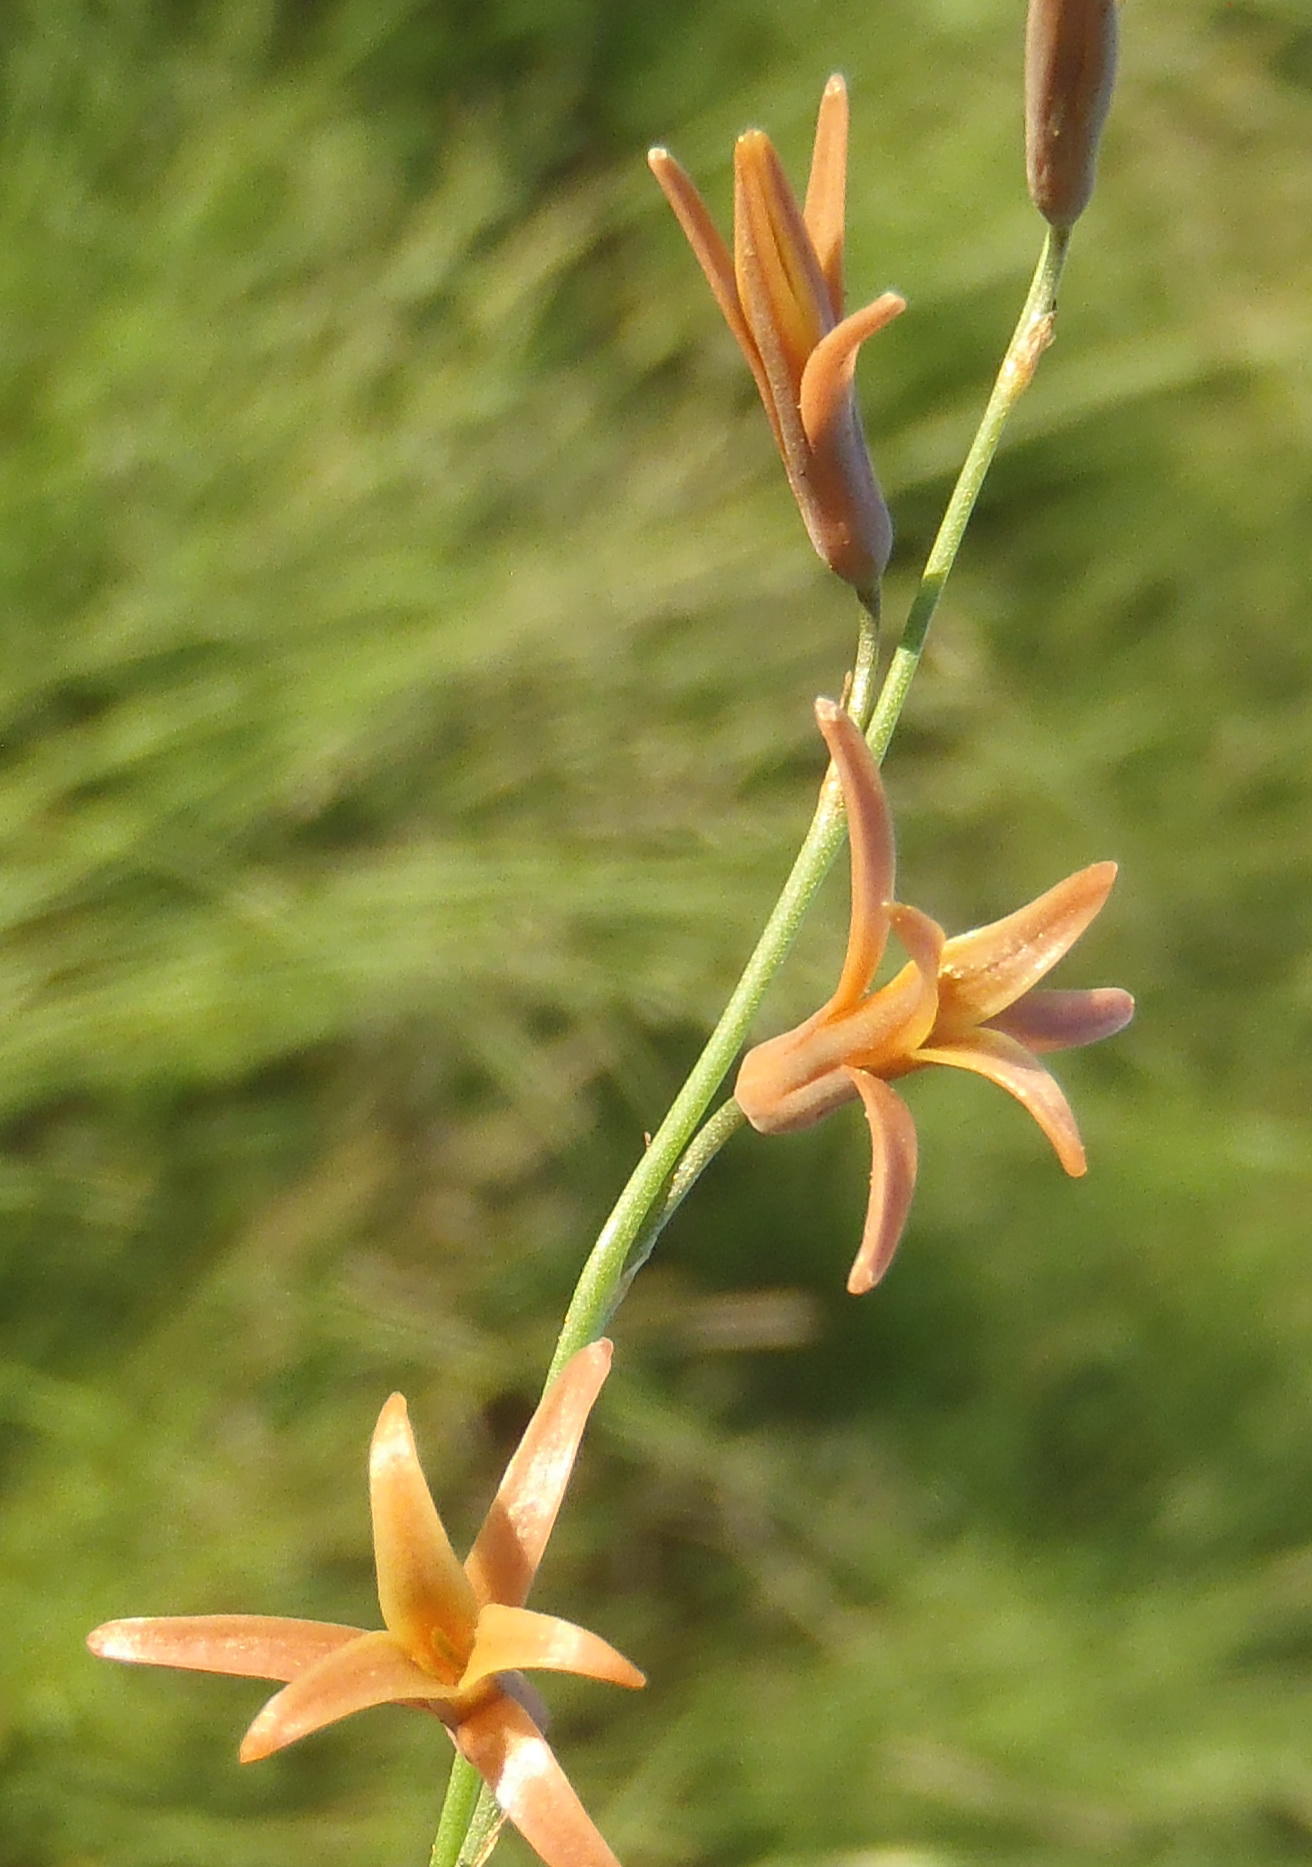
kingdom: Plantae
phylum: Tracheophyta
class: Liliopsida
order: Asparagales
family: Asparagaceae
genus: Dipcadi
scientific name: Dipcadi ciliare
